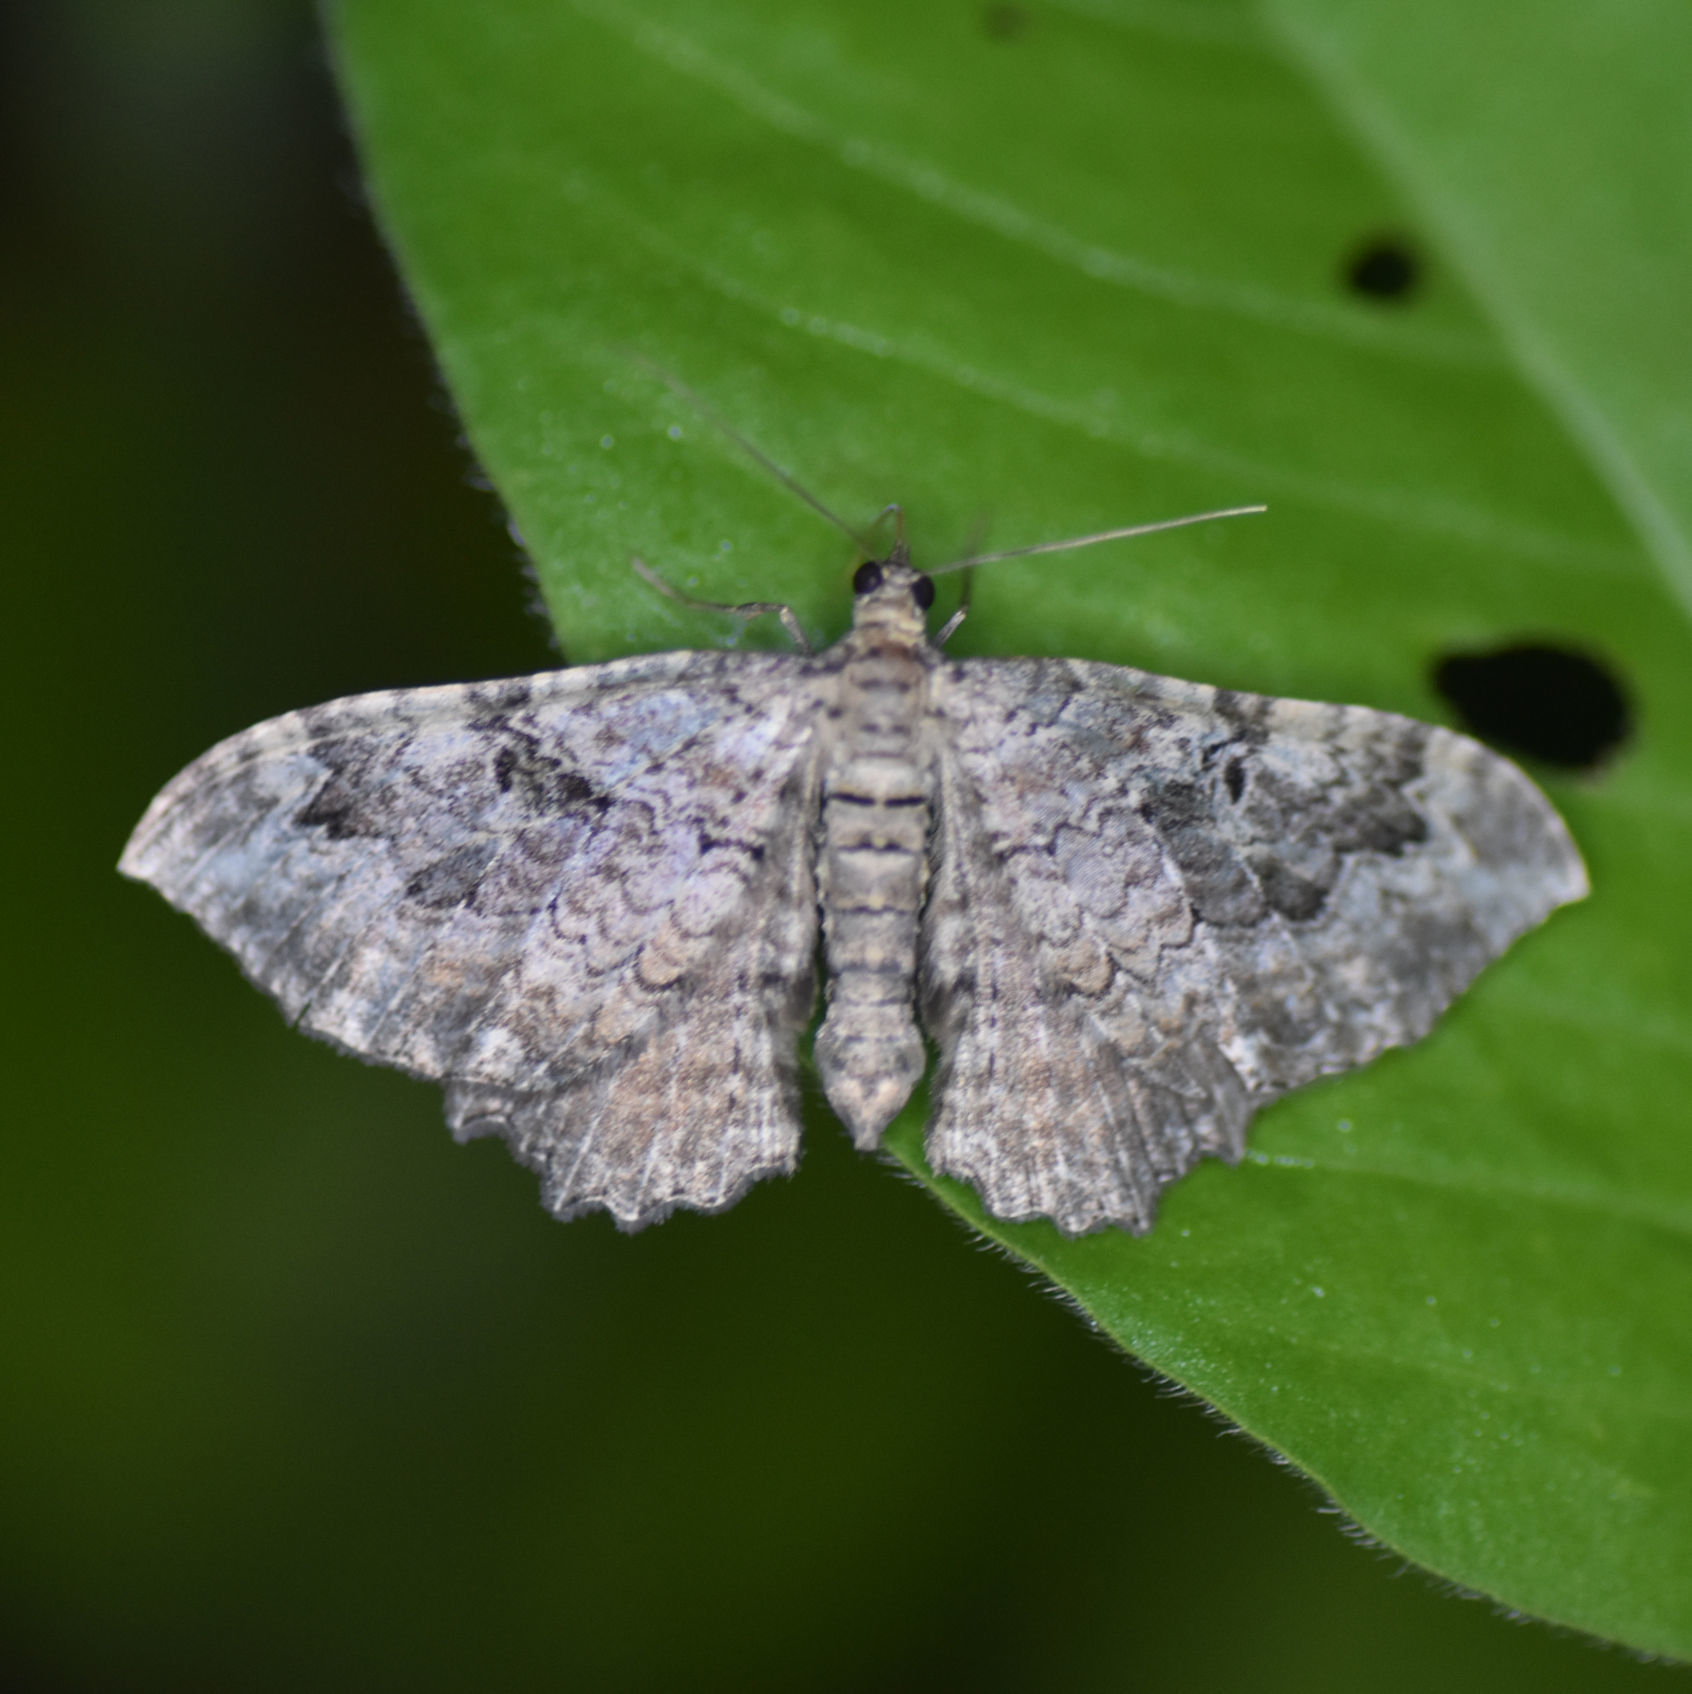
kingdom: Animalia
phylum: Arthropoda
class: Insecta
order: Lepidoptera
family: Geometridae
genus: Rheumaptera
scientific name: Rheumaptera
